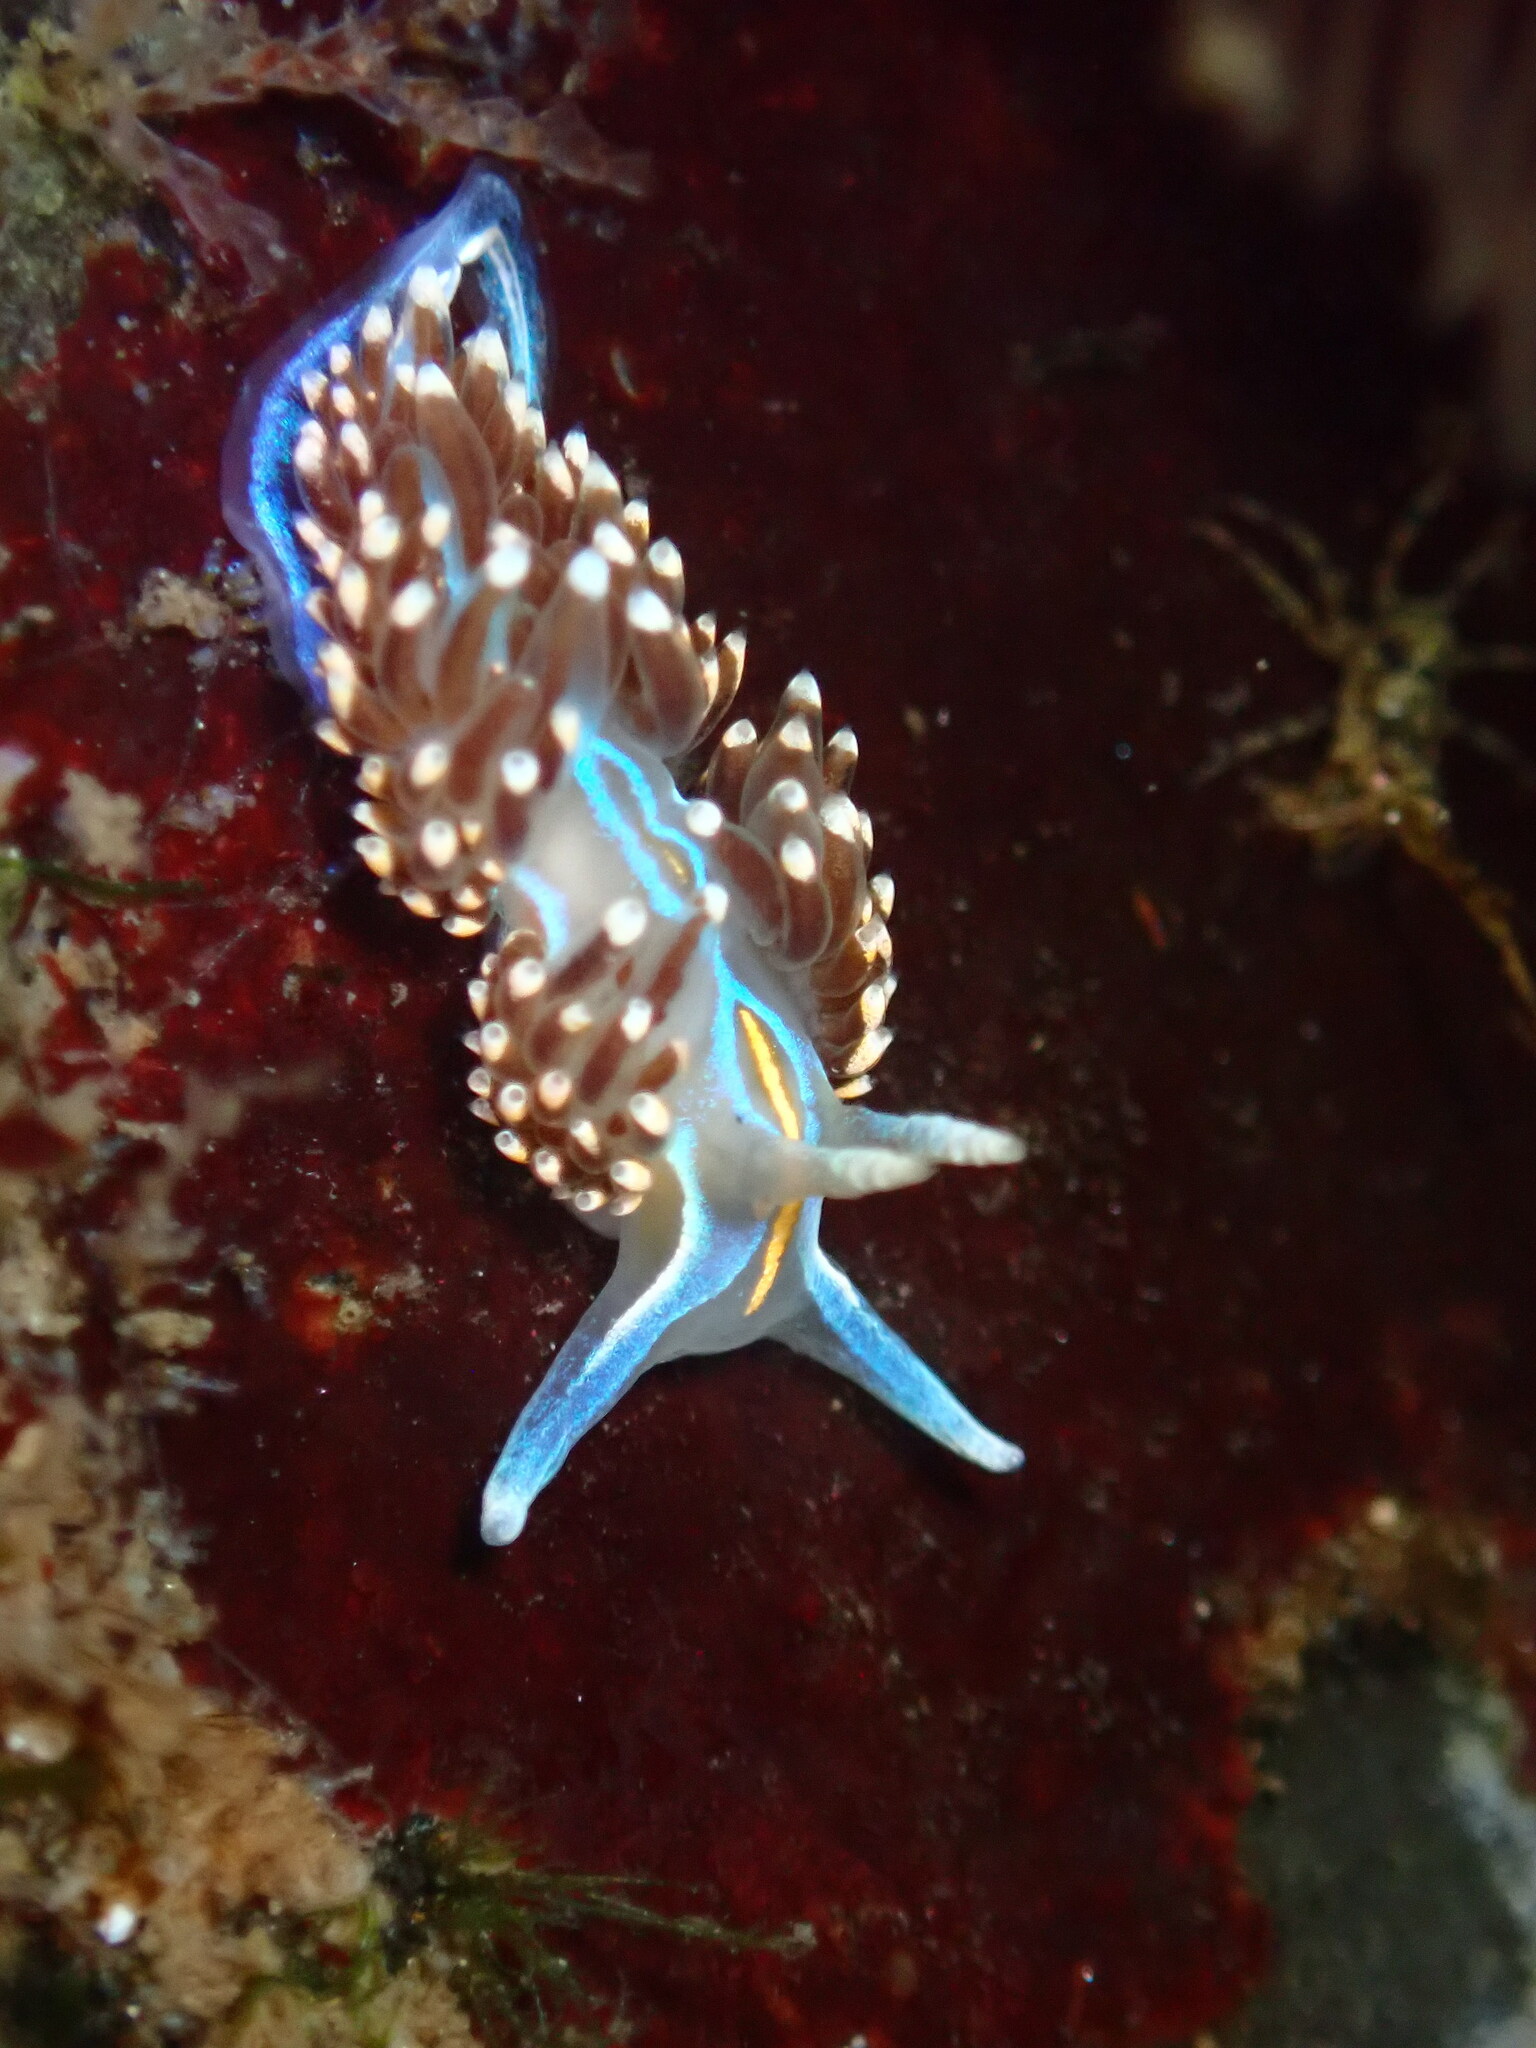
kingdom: Animalia
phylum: Mollusca
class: Gastropoda
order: Nudibranchia
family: Myrrhinidae
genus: Hermissenda
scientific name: Hermissenda opalescens
